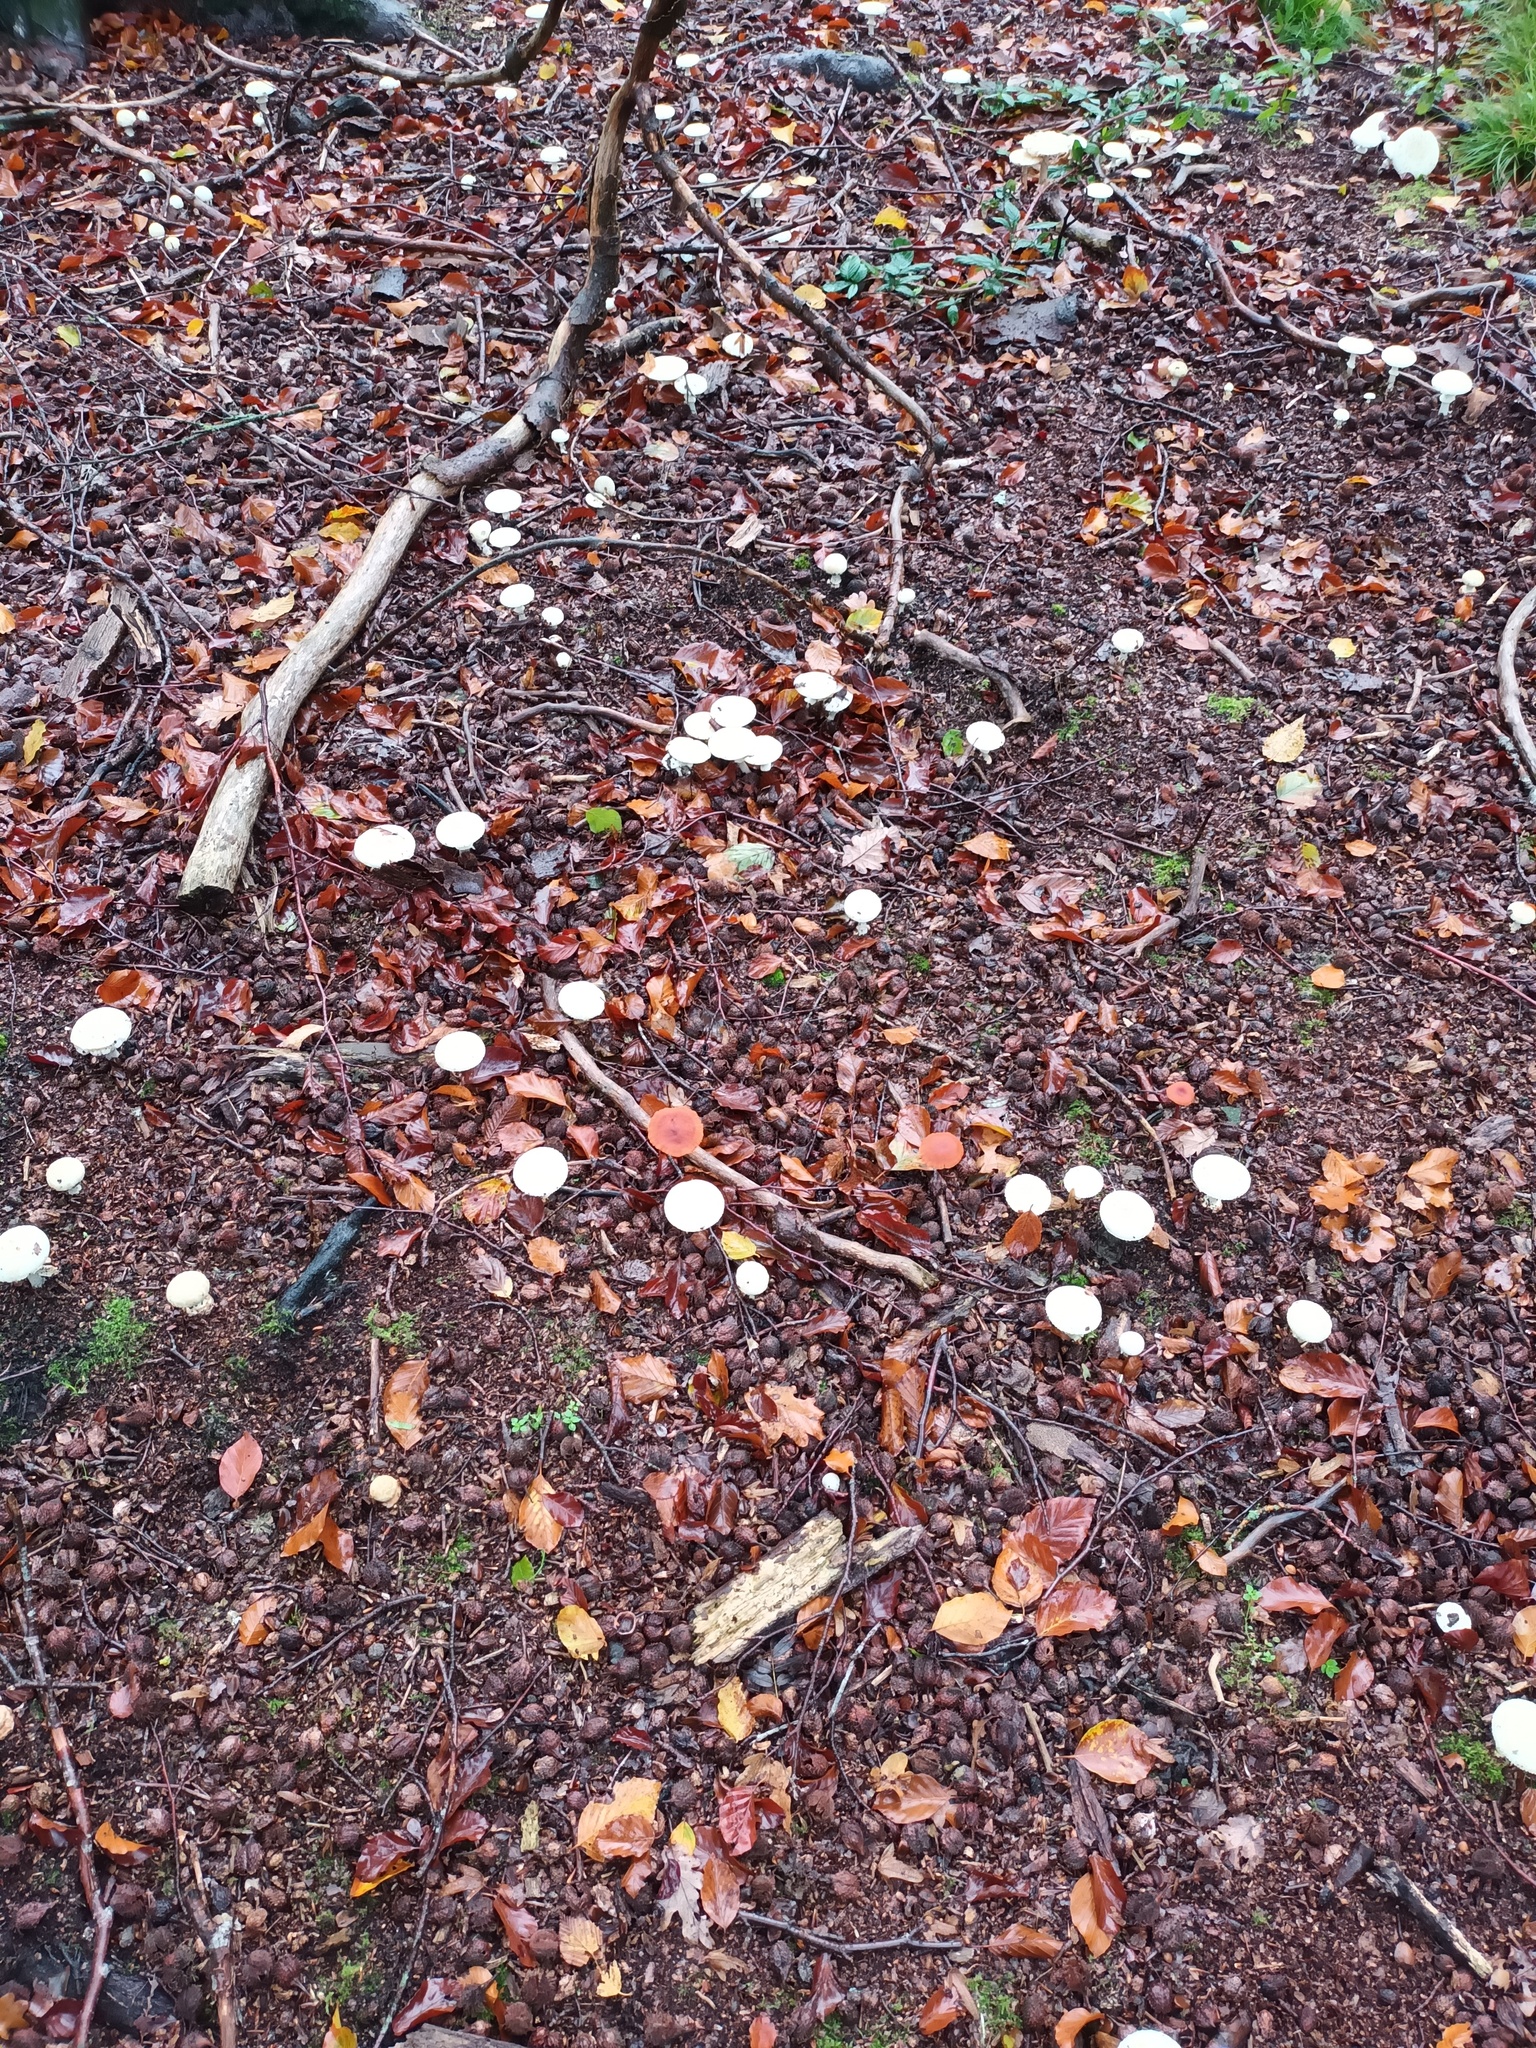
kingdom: Fungi
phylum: Basidiomycota
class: Agaricomycetes
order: Agaricales
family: Amanitaceae
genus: Amanita
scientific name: Amanita citrina
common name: False death-cap
